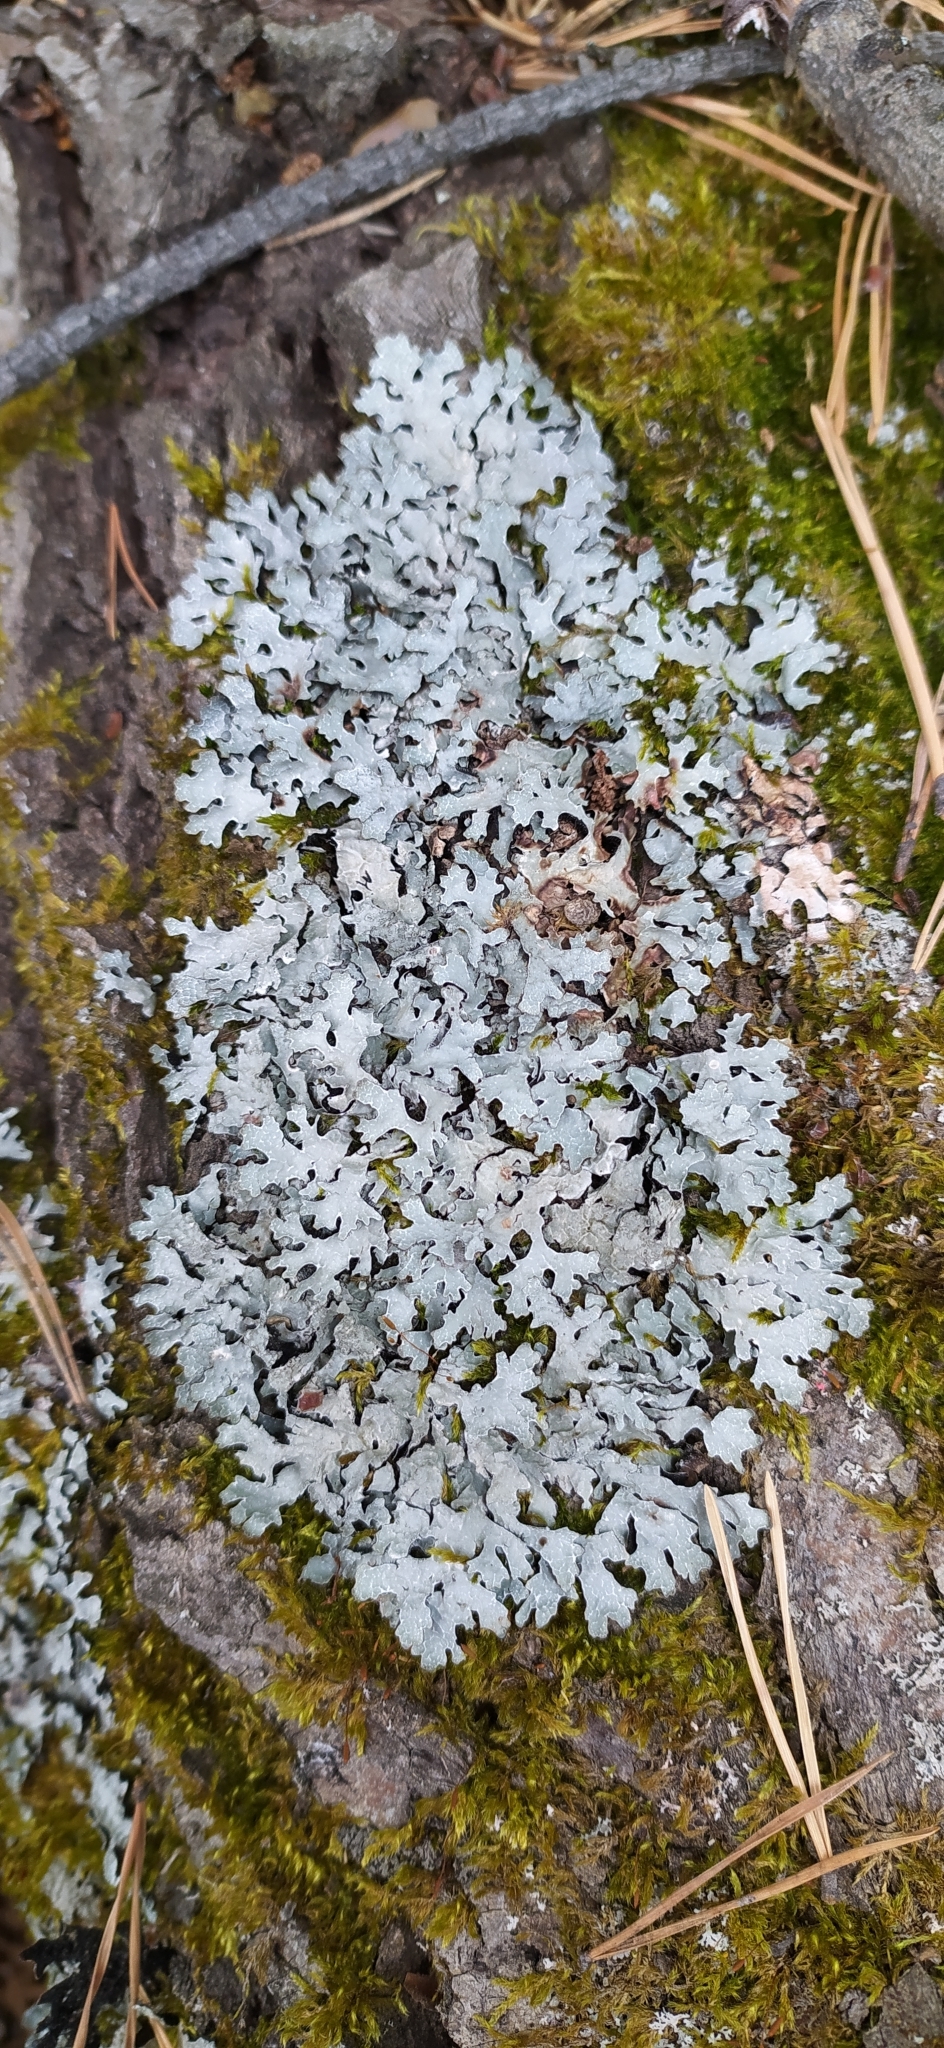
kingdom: Fungi
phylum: Ascomycota
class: Lecanoromycetes
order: Lecanorales
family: Parmeliaceae
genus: Parmelia
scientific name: Parmelia sulcata
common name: Netted shield lichen
